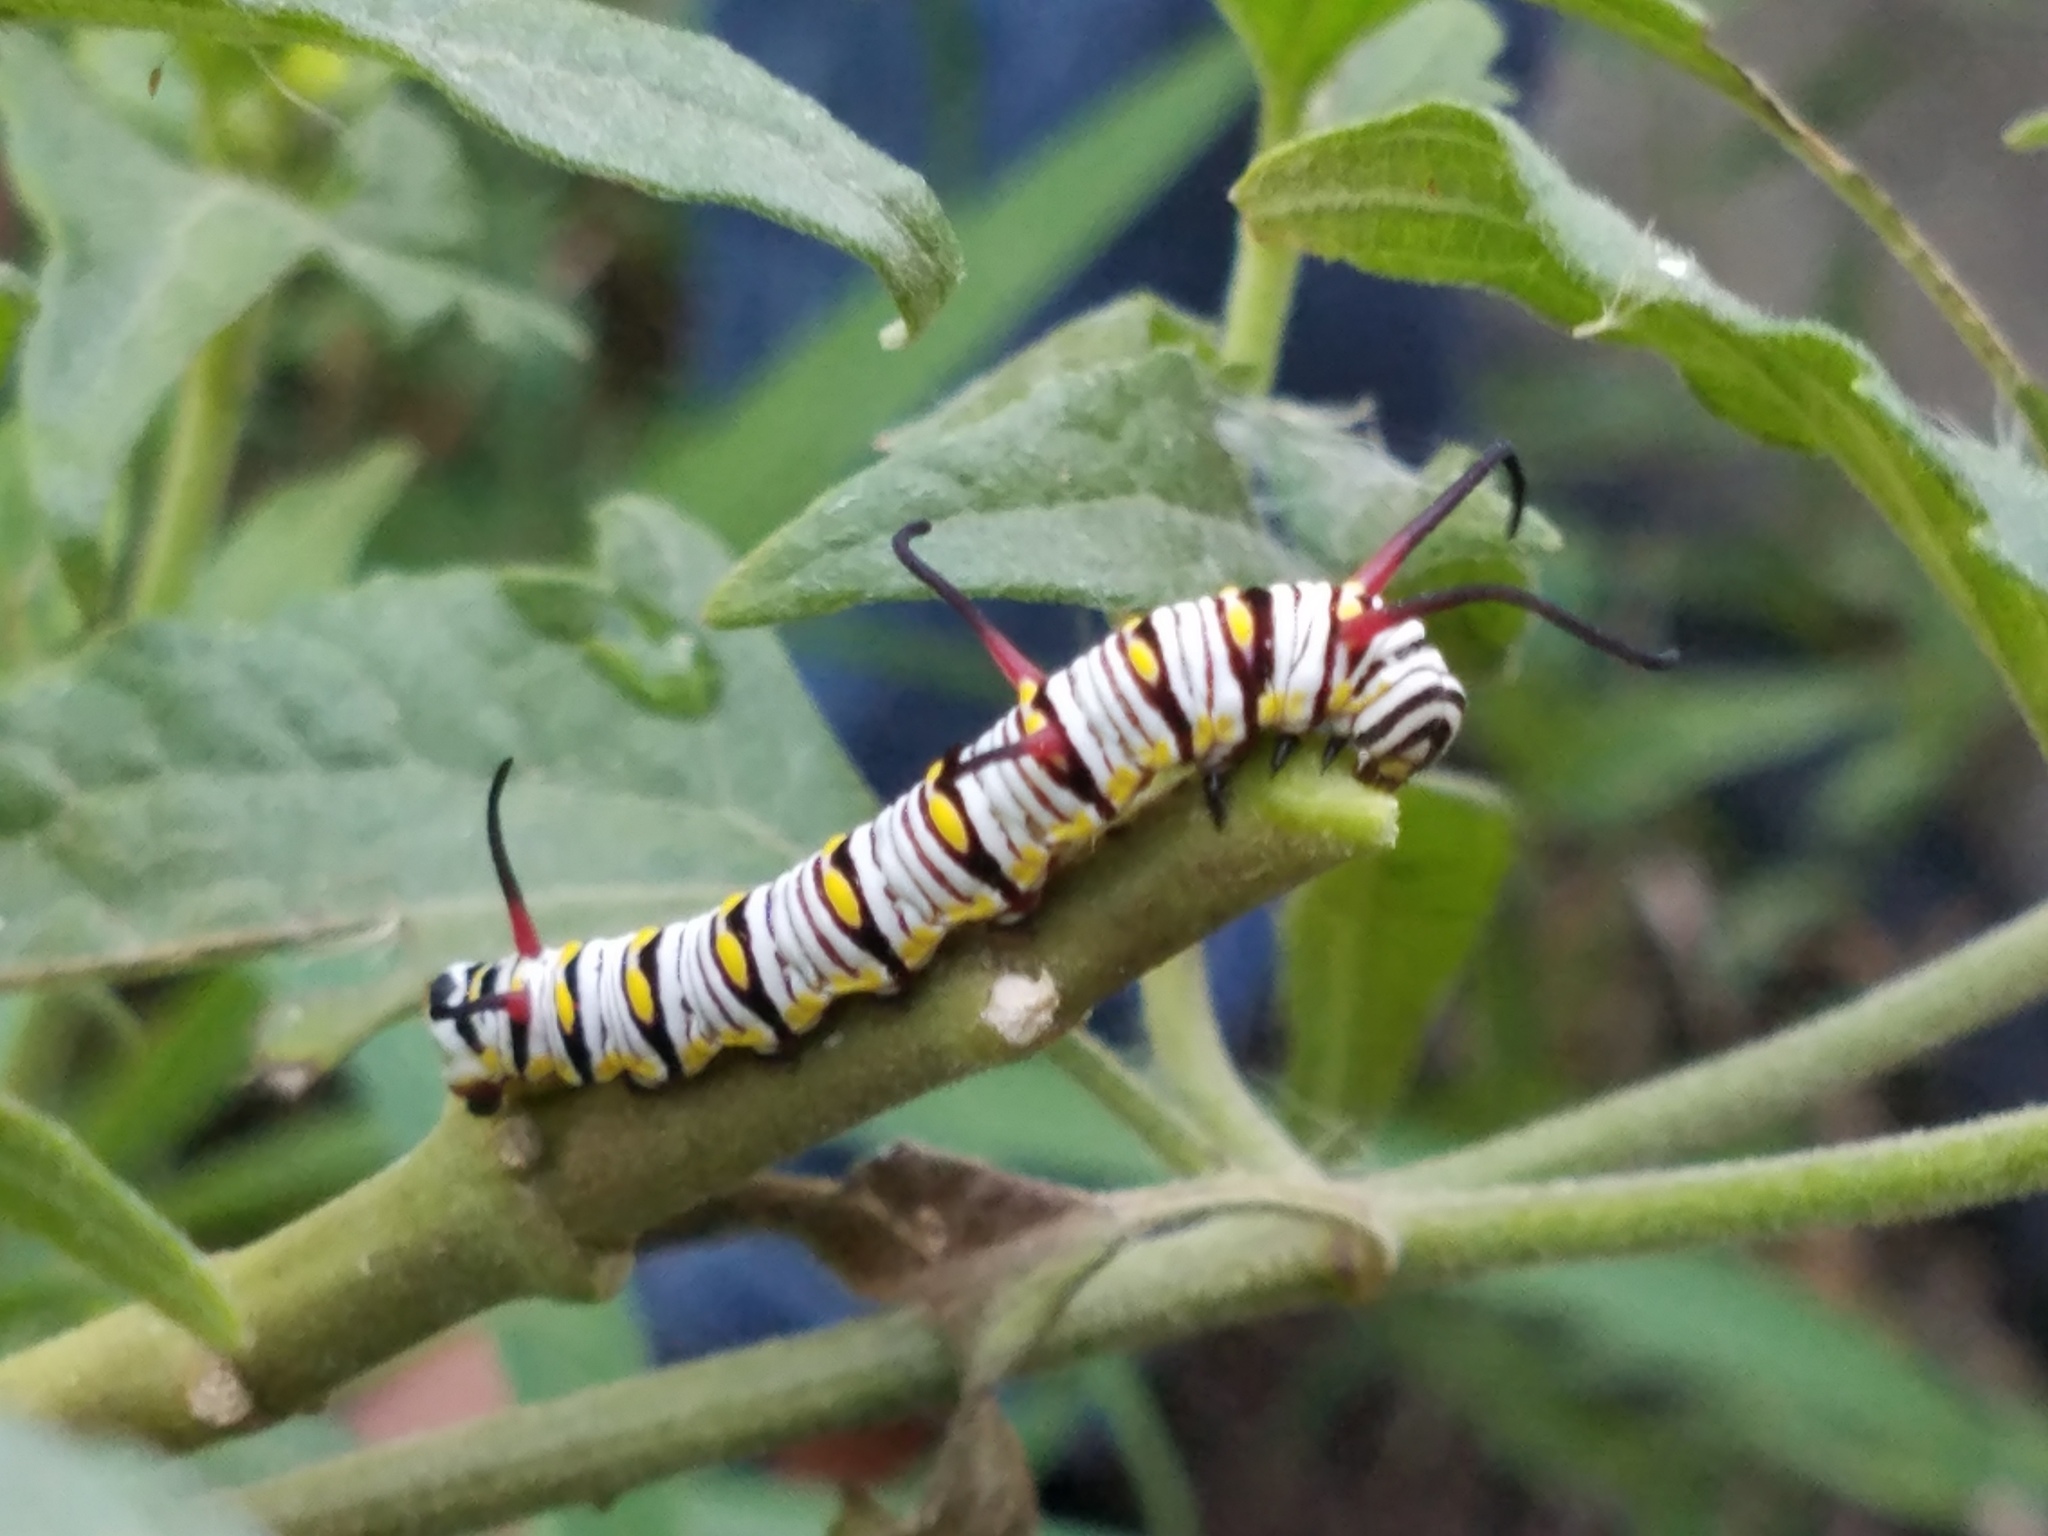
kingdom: Animalia
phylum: Arthropoda
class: Insecta
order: Lepidoptera
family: Nymphalidae
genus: Danaus
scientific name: Danaus gilippus
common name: Queen
